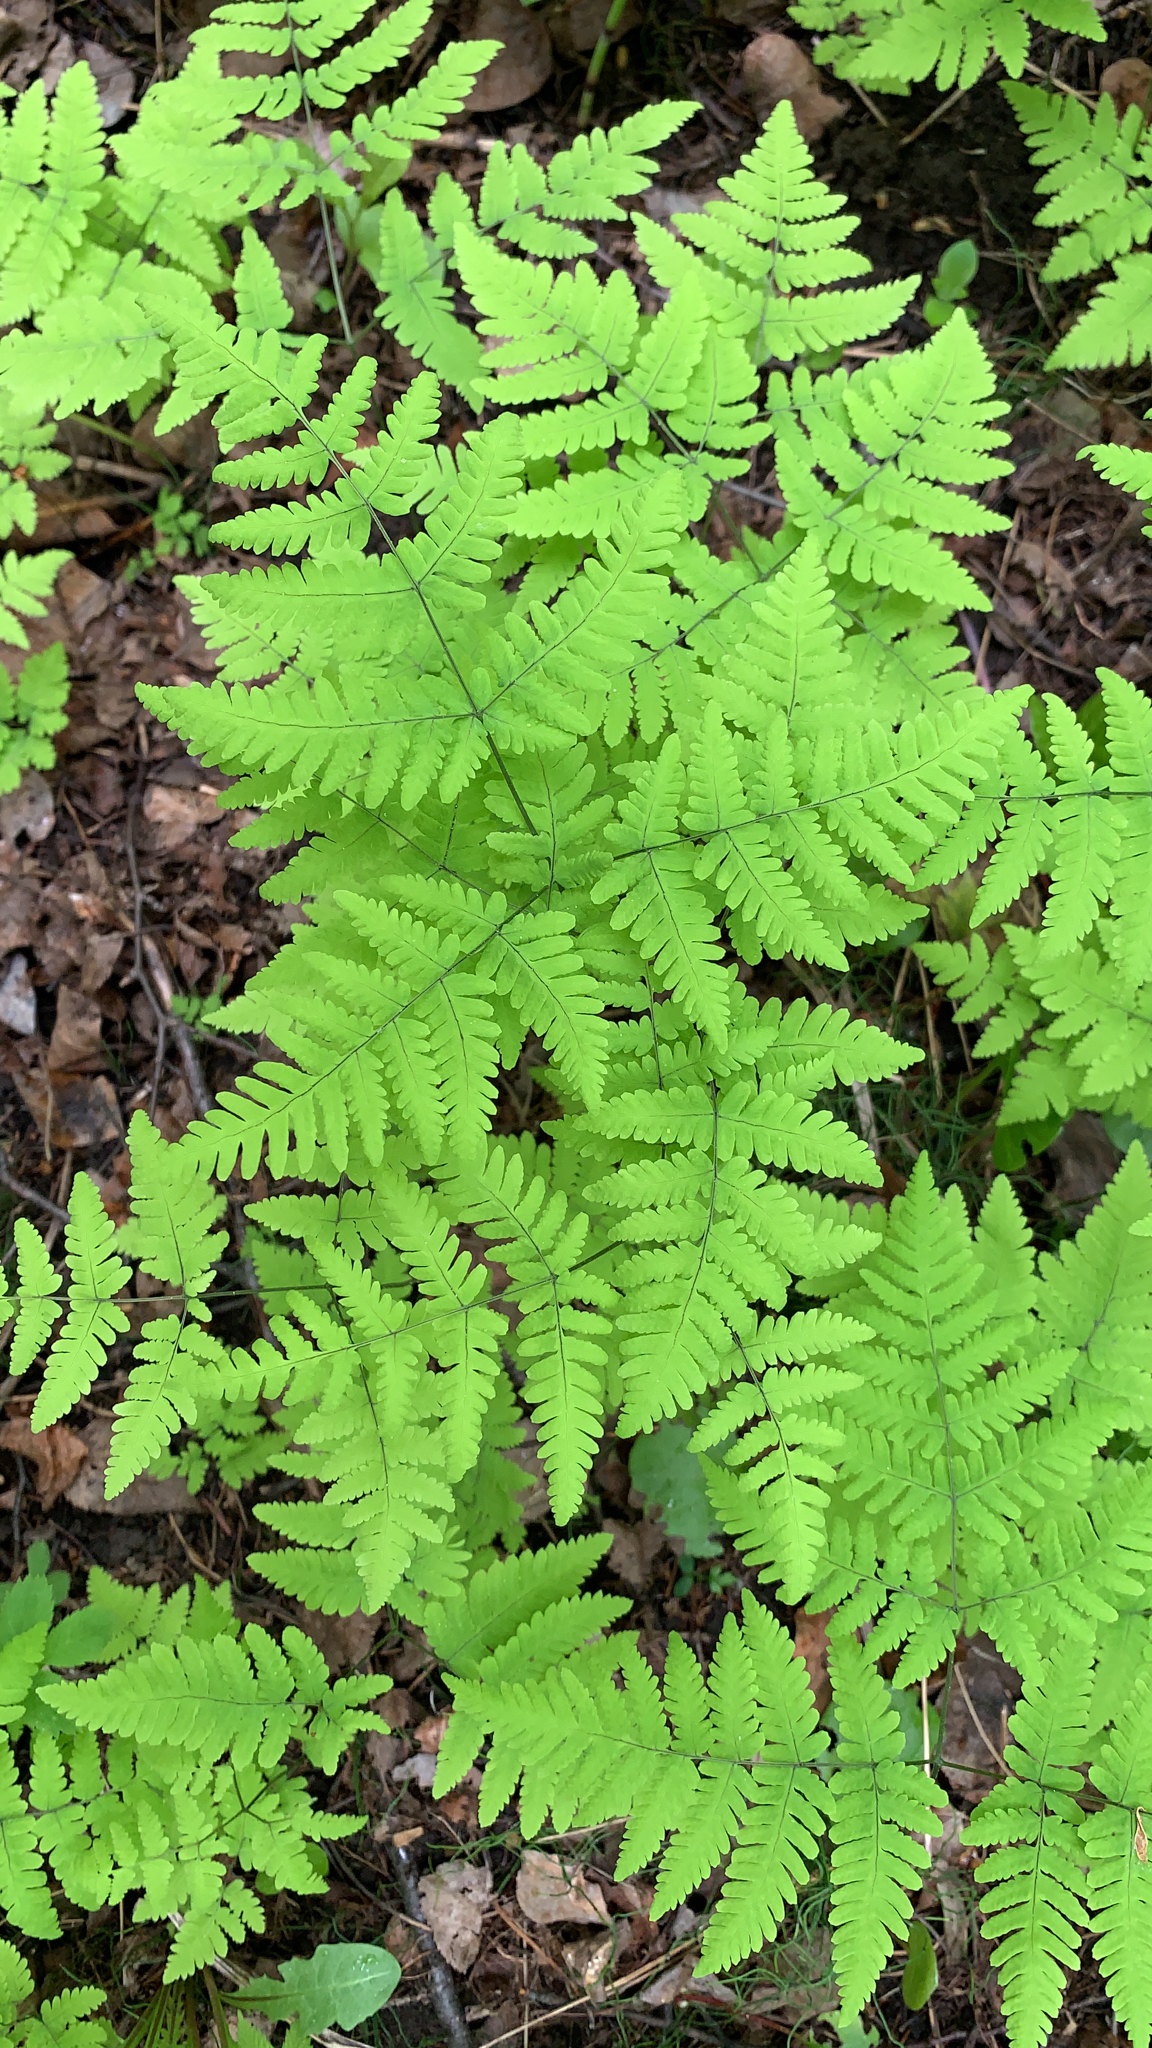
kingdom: Plantae
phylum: Tracheophyta
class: Polypodiopsida
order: Polypodiales
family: Cystopteridaceae
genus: Gymnocarpium
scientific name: Gymnocarpium dryopteris
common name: Oak fern
